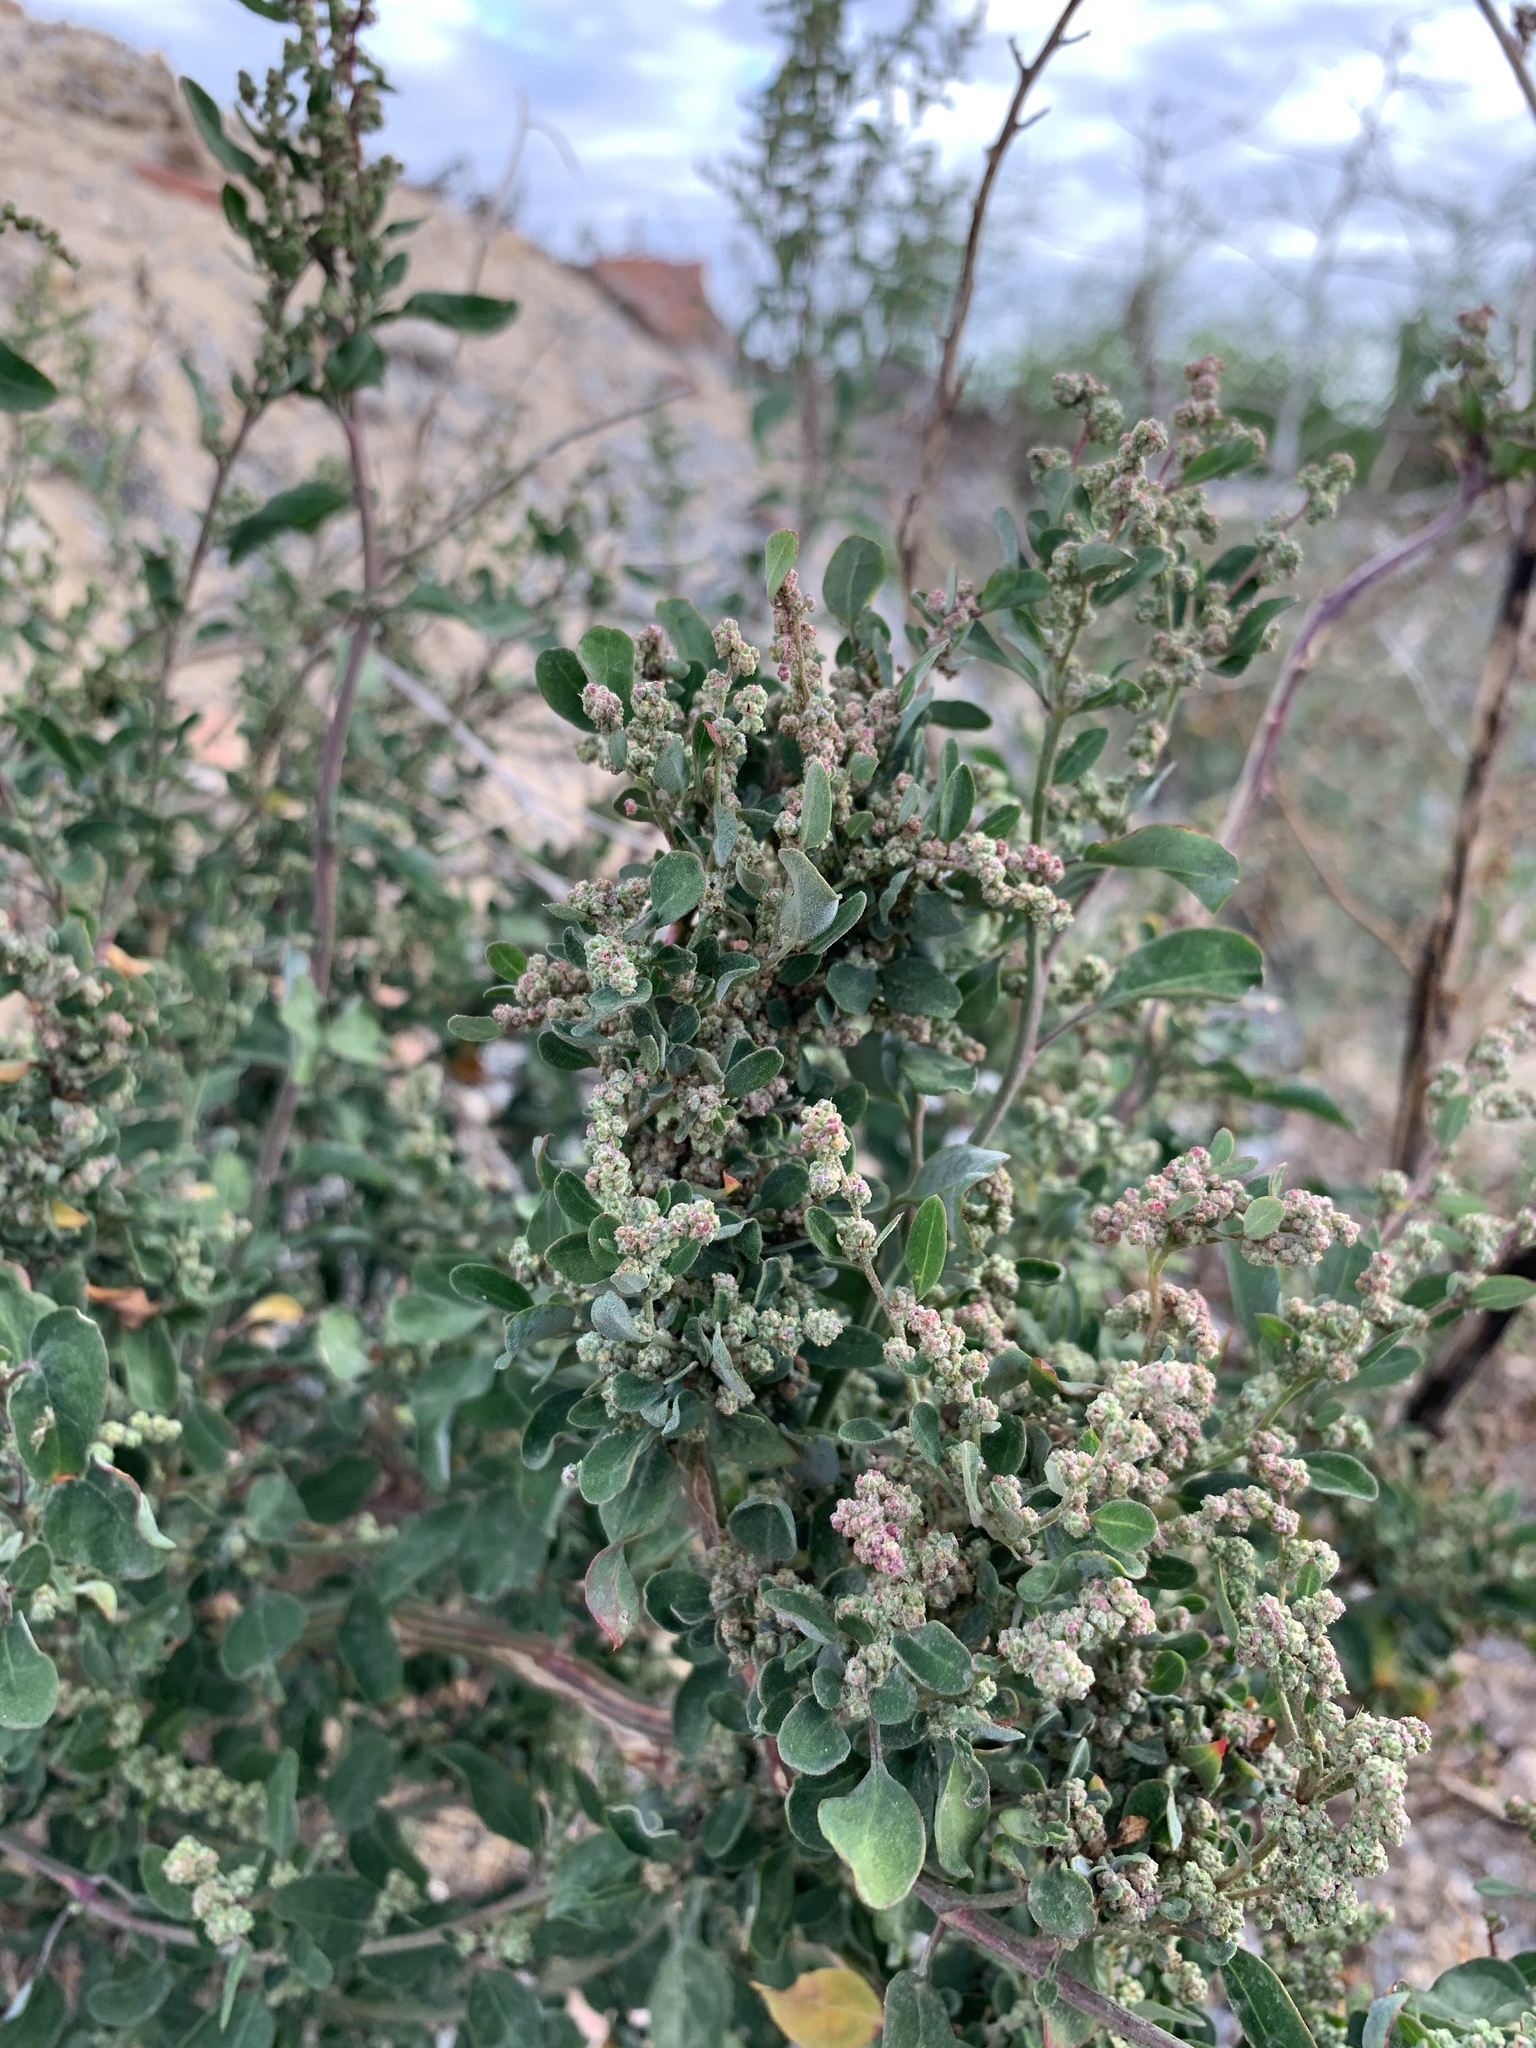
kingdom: Plantae
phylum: Tracheophyta
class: Magnoliopsida
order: Caryophyllales
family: Amaranthaceae
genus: Chenopodium
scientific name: Chenopodium album
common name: Fat-hen
